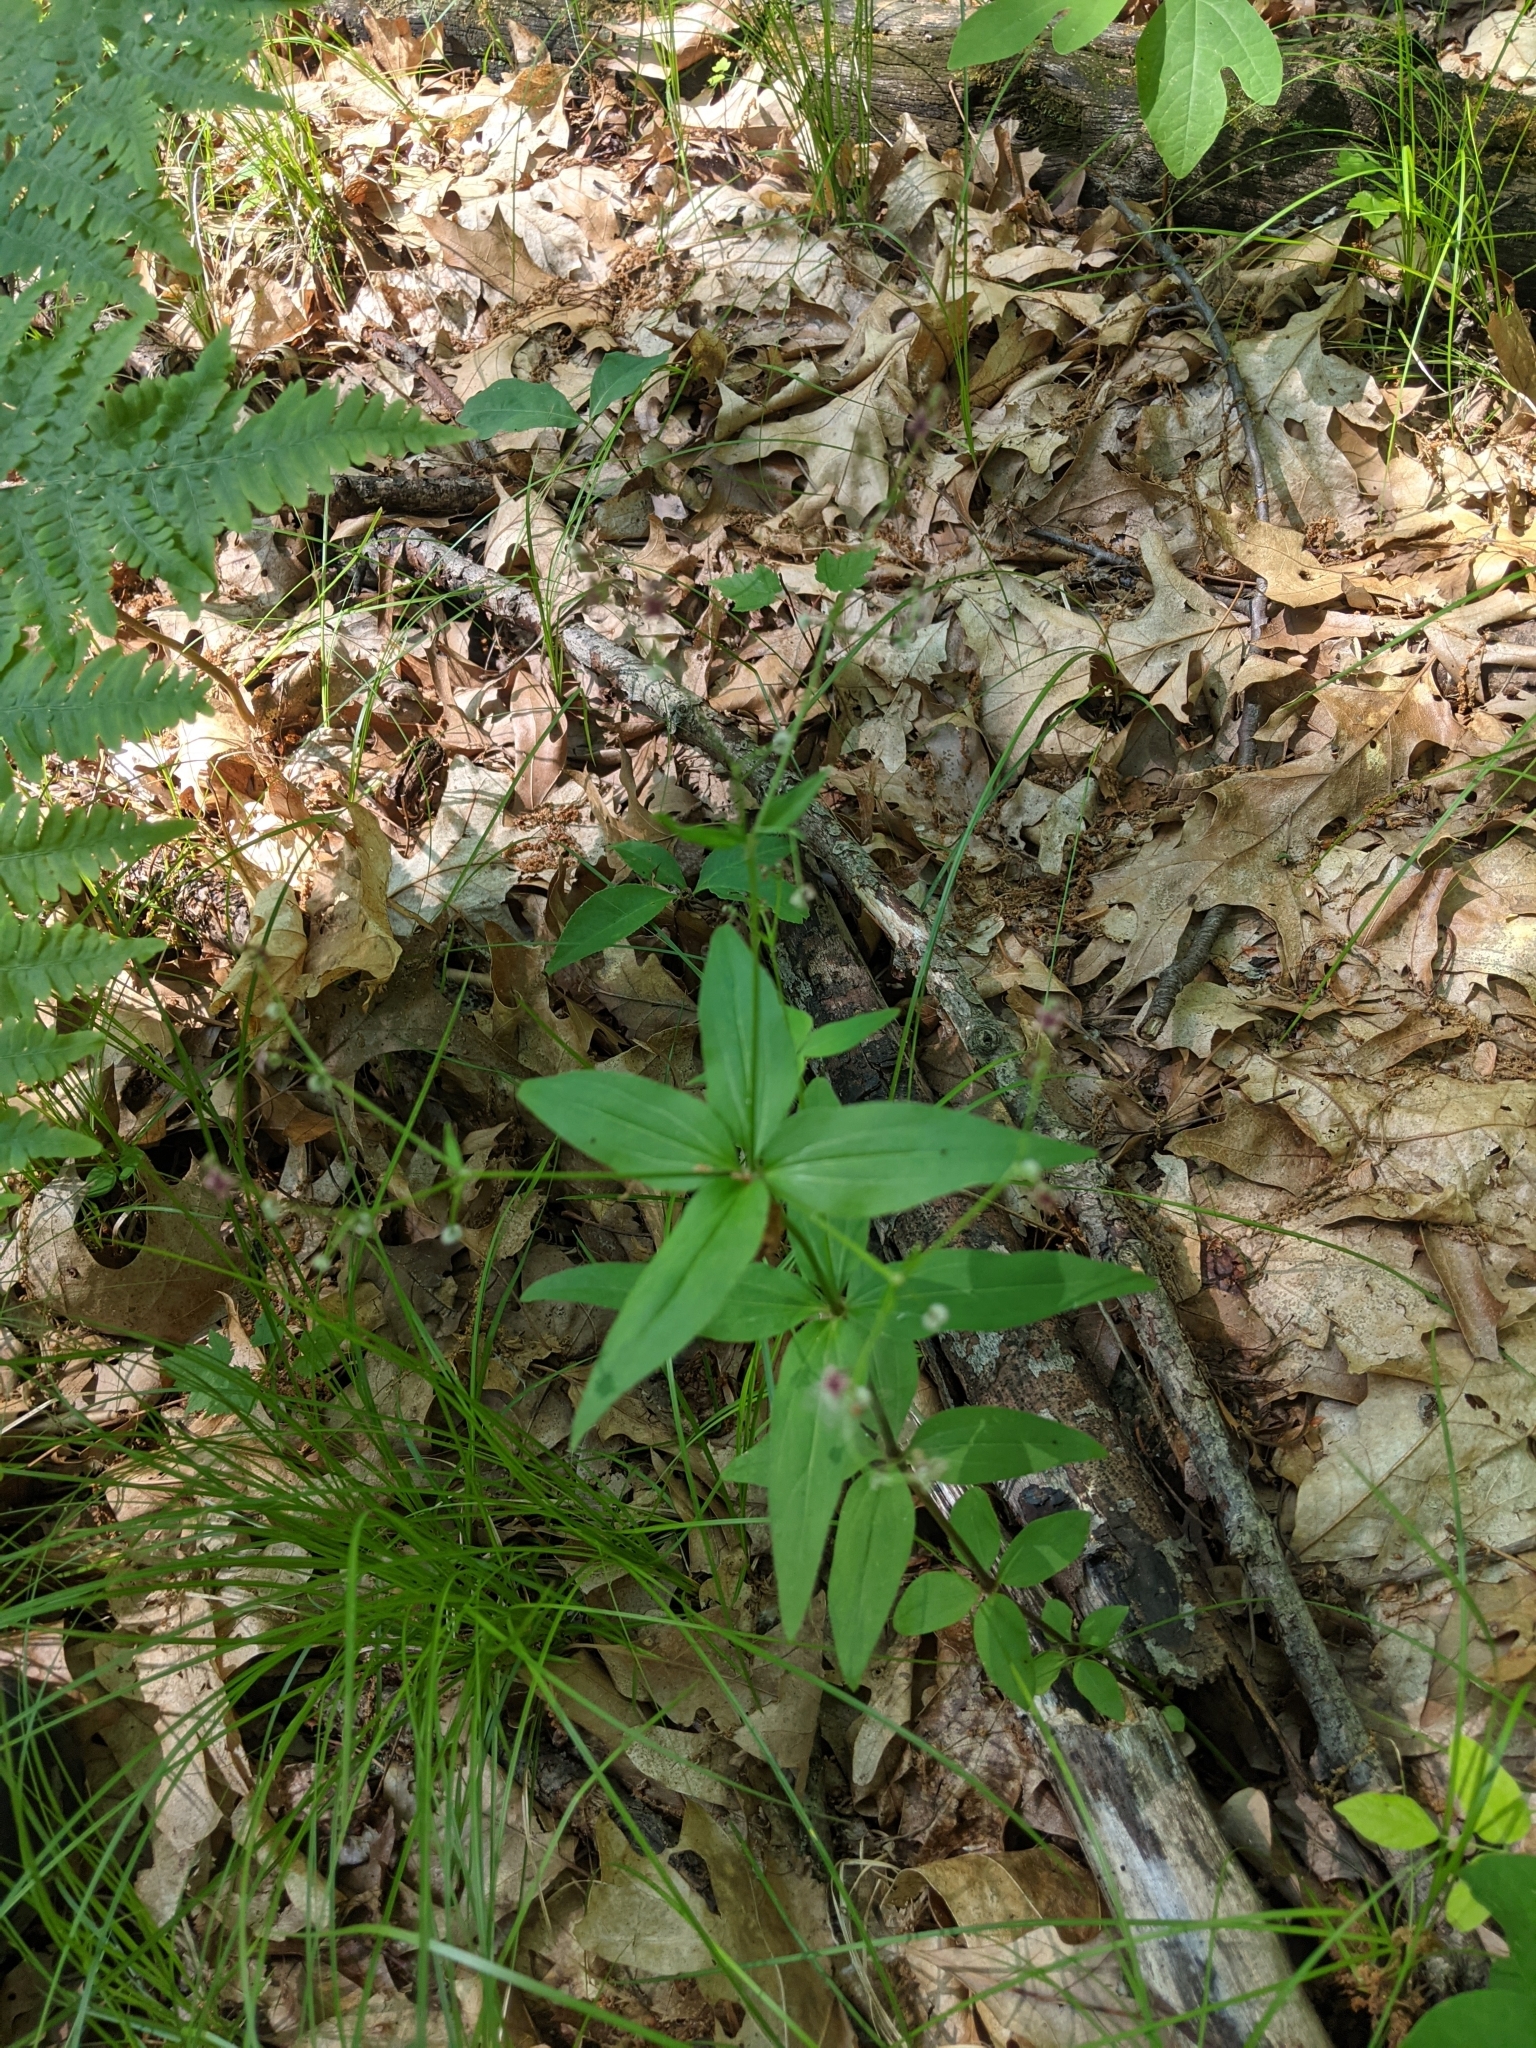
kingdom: Plantae
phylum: Tracheophyta
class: Magnoliopsida
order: Gentianales
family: Rubiaceae
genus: Galium
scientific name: Galium lanceolatum
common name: Lance-leaved wild licorice
